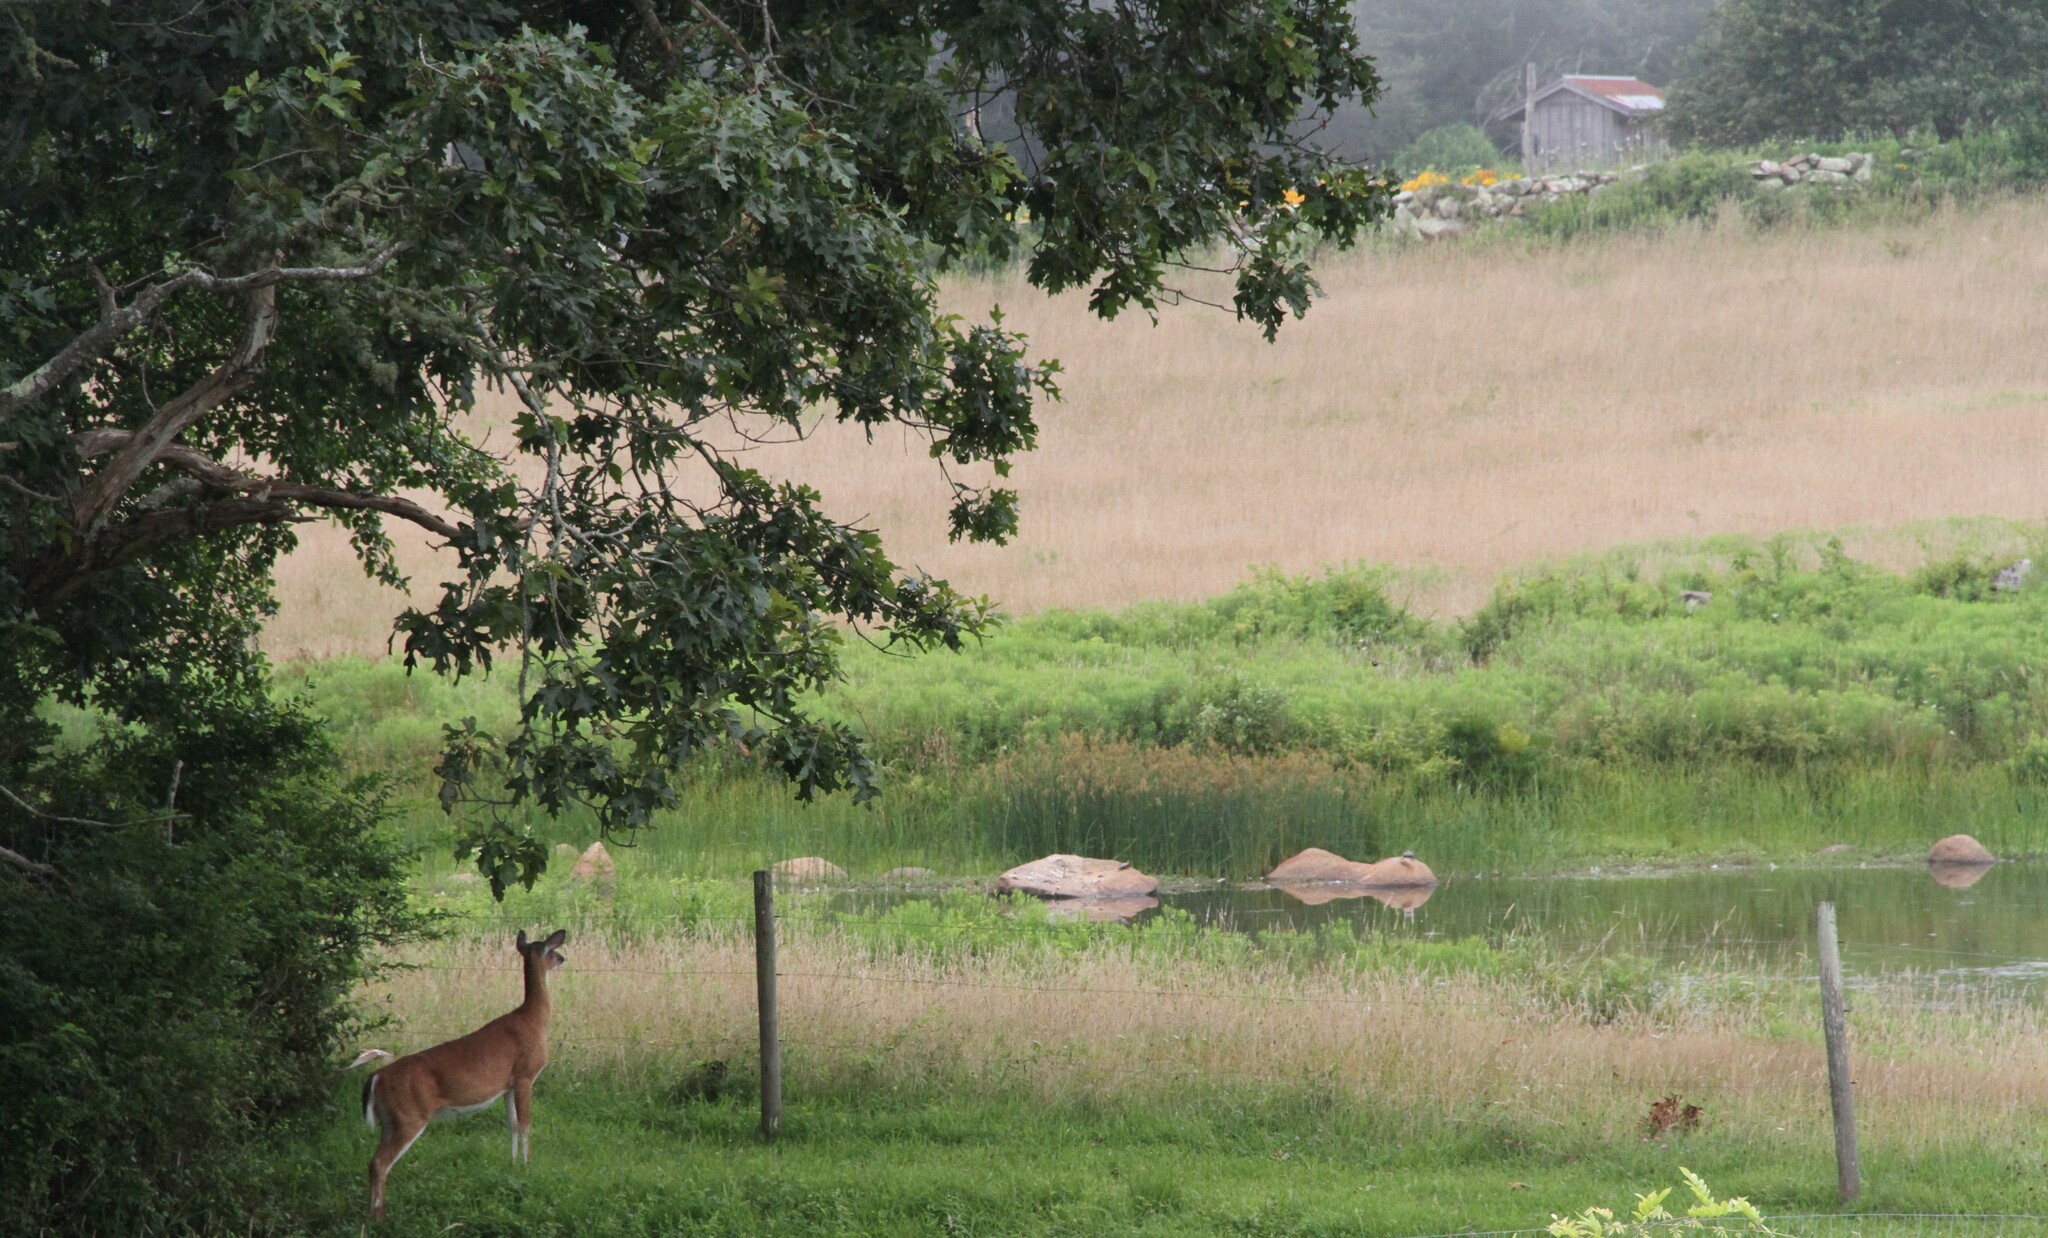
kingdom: Animalia
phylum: Chordata
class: Mammalia
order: Artiodactyla
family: Cervidae
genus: Odocoileus
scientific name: Odocoileus virginianus
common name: White-tailed deer
